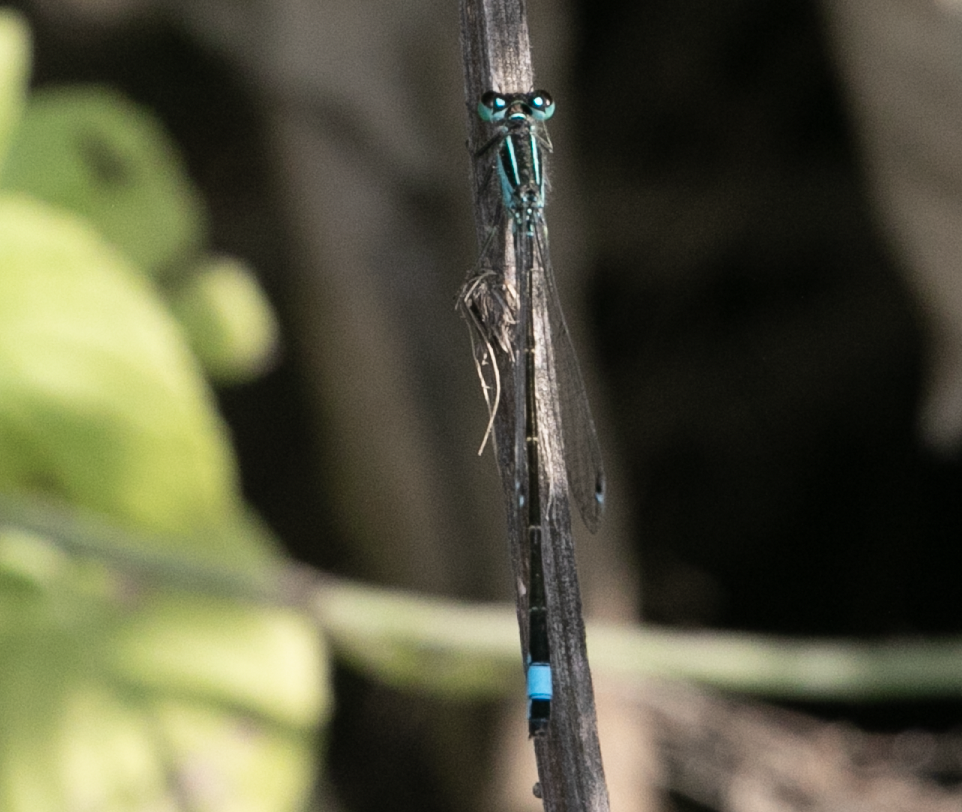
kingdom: Animalia
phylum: Arthropoda
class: Insecta
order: Odonata
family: Coenagrionidae
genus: Ischnura
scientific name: Ischnura elegans
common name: Blue-tailed damselfly
